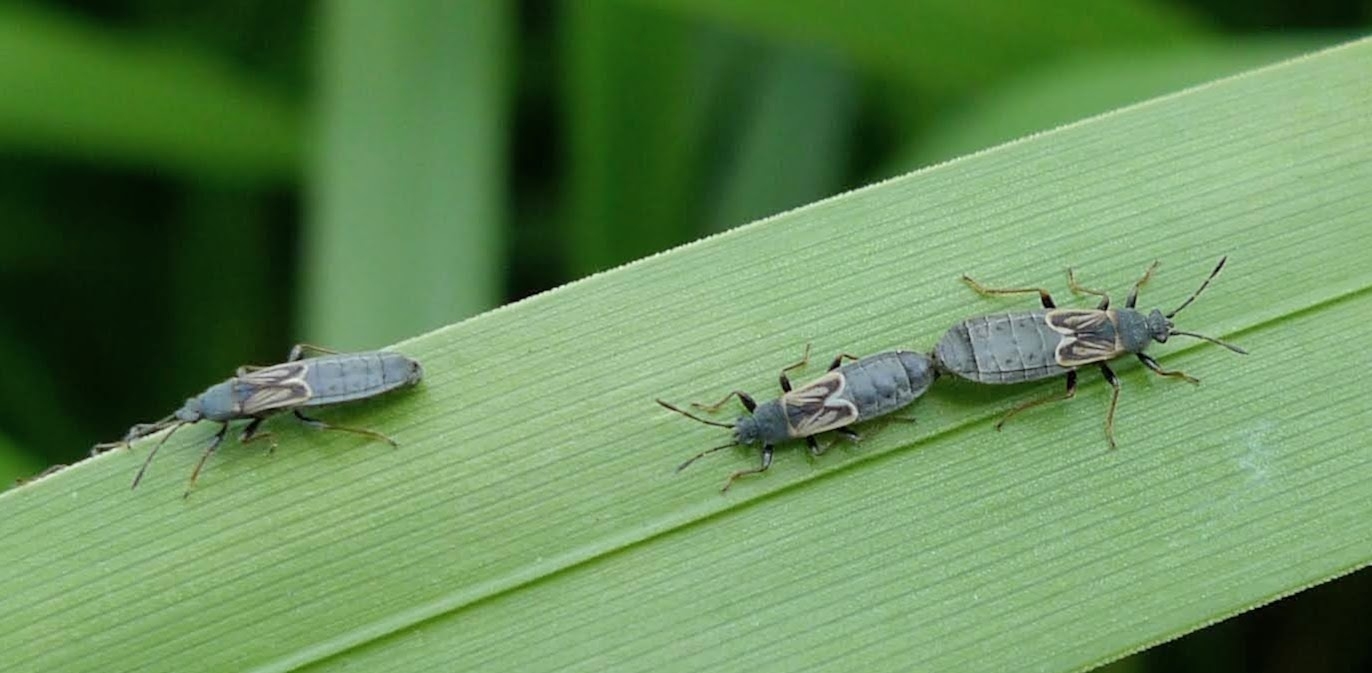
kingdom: Animalia
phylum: Arthropoda
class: Insecta
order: Hemiptera
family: Blissidae
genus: Ischnodemus
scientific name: Ischnodemus sabuleti
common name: European cinchbug
